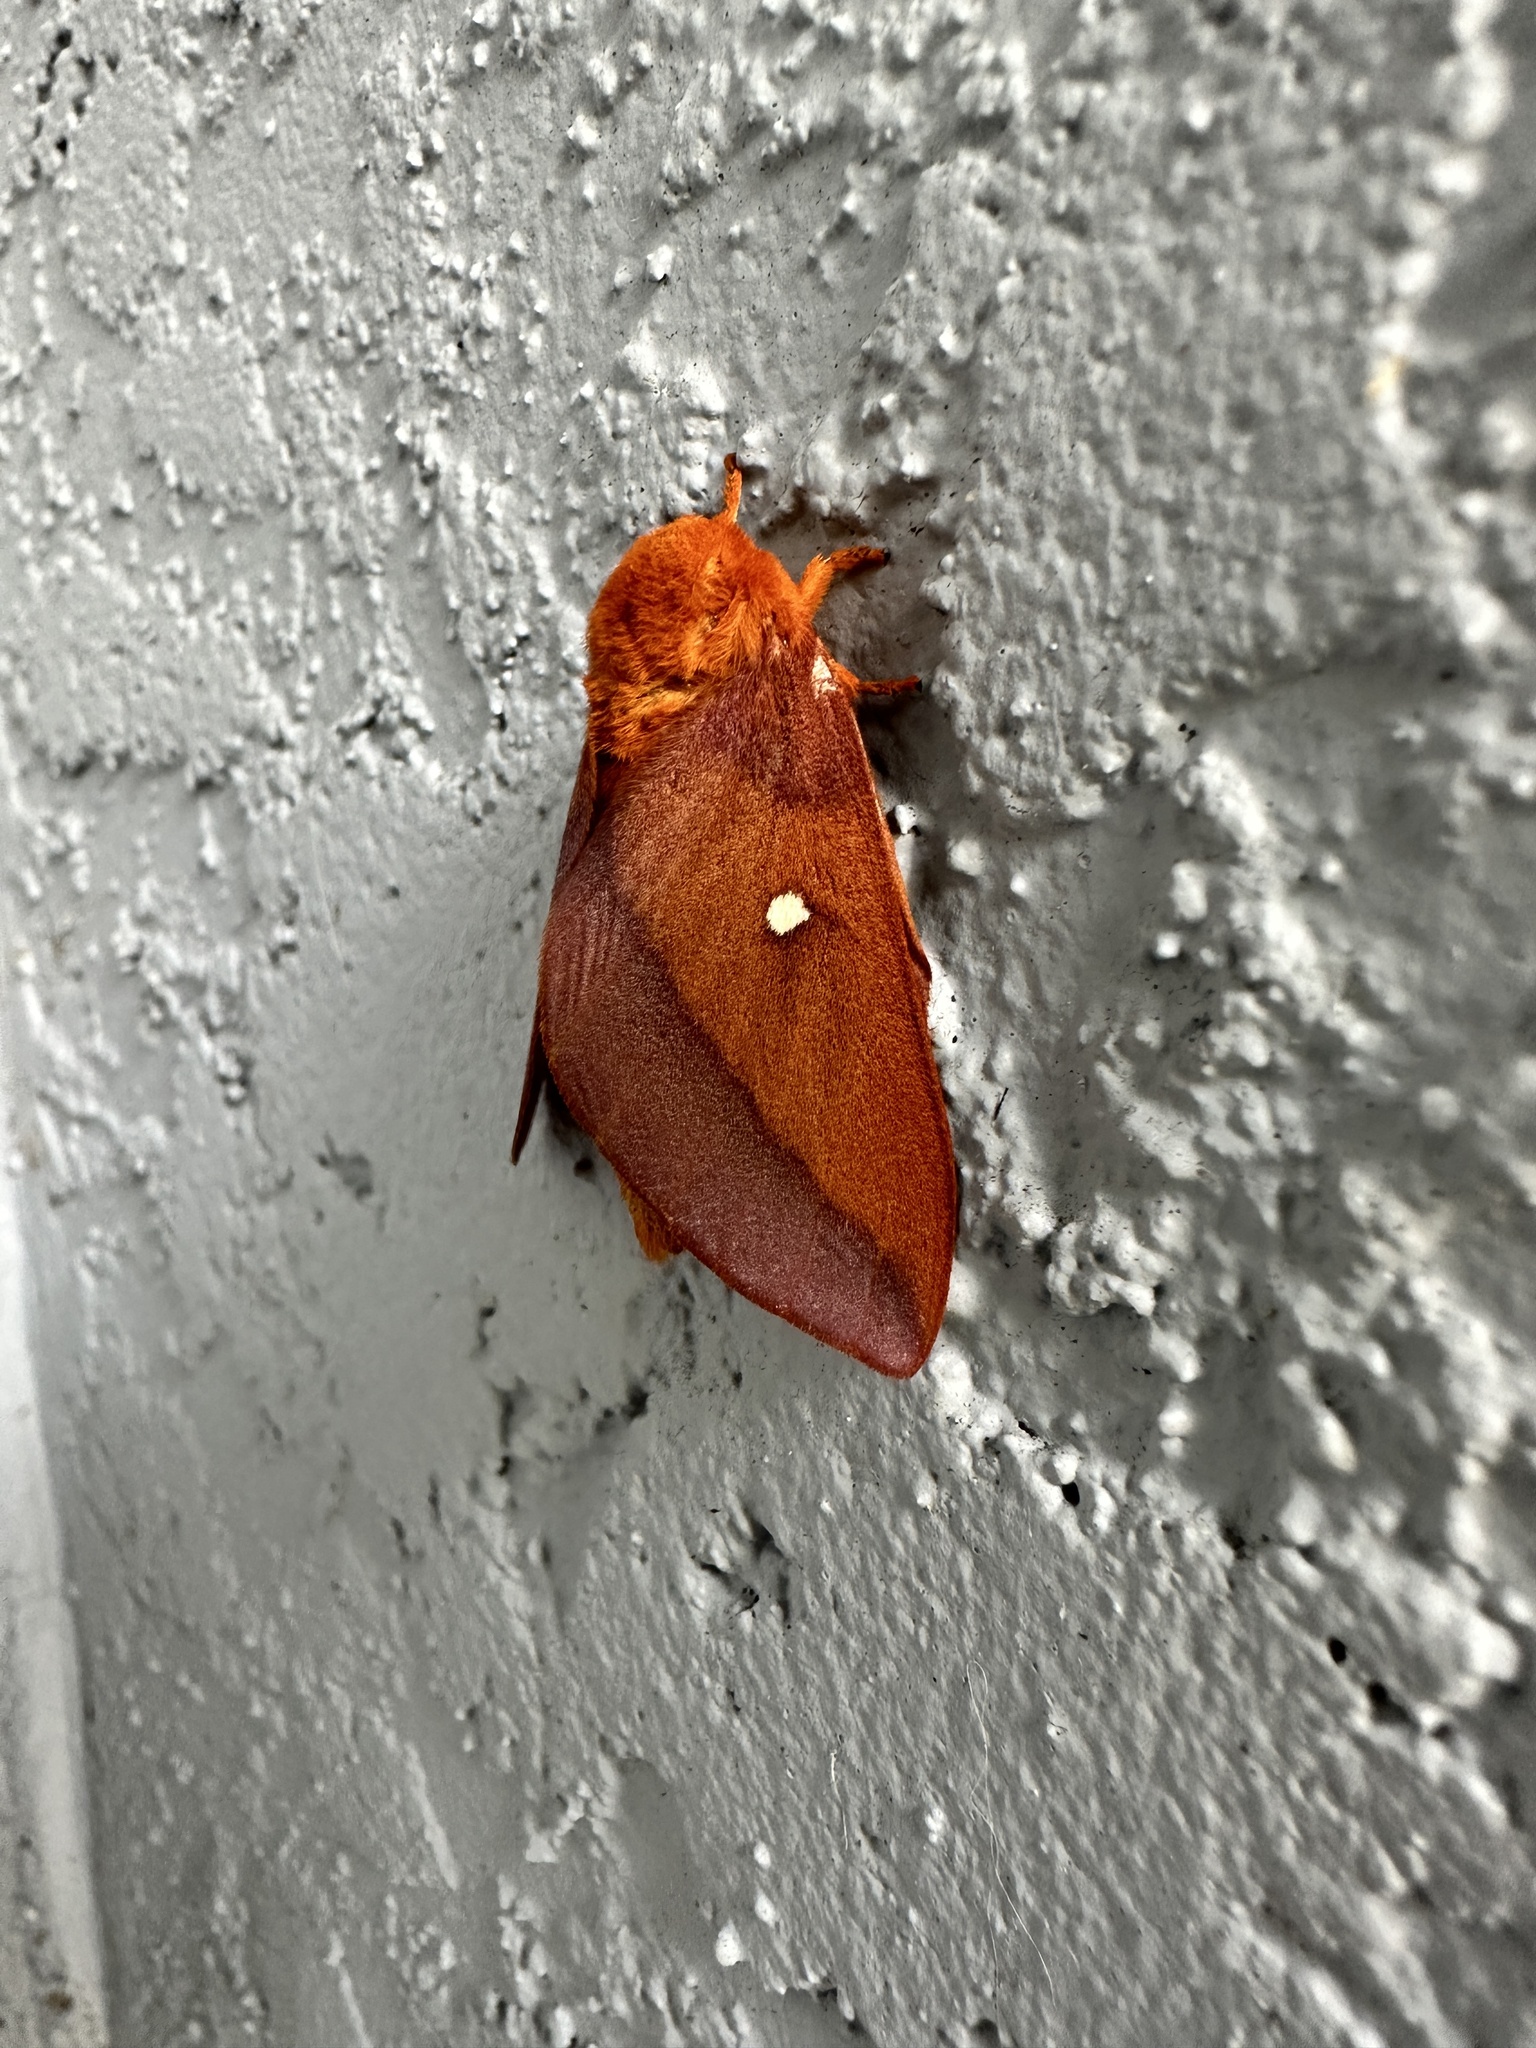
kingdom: Animalia
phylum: Arthropoda
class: Insecta
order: Lepidoptera
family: Saturniidae
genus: Anisota
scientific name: Anisota virginiensis
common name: Pink striped oakworm moth
